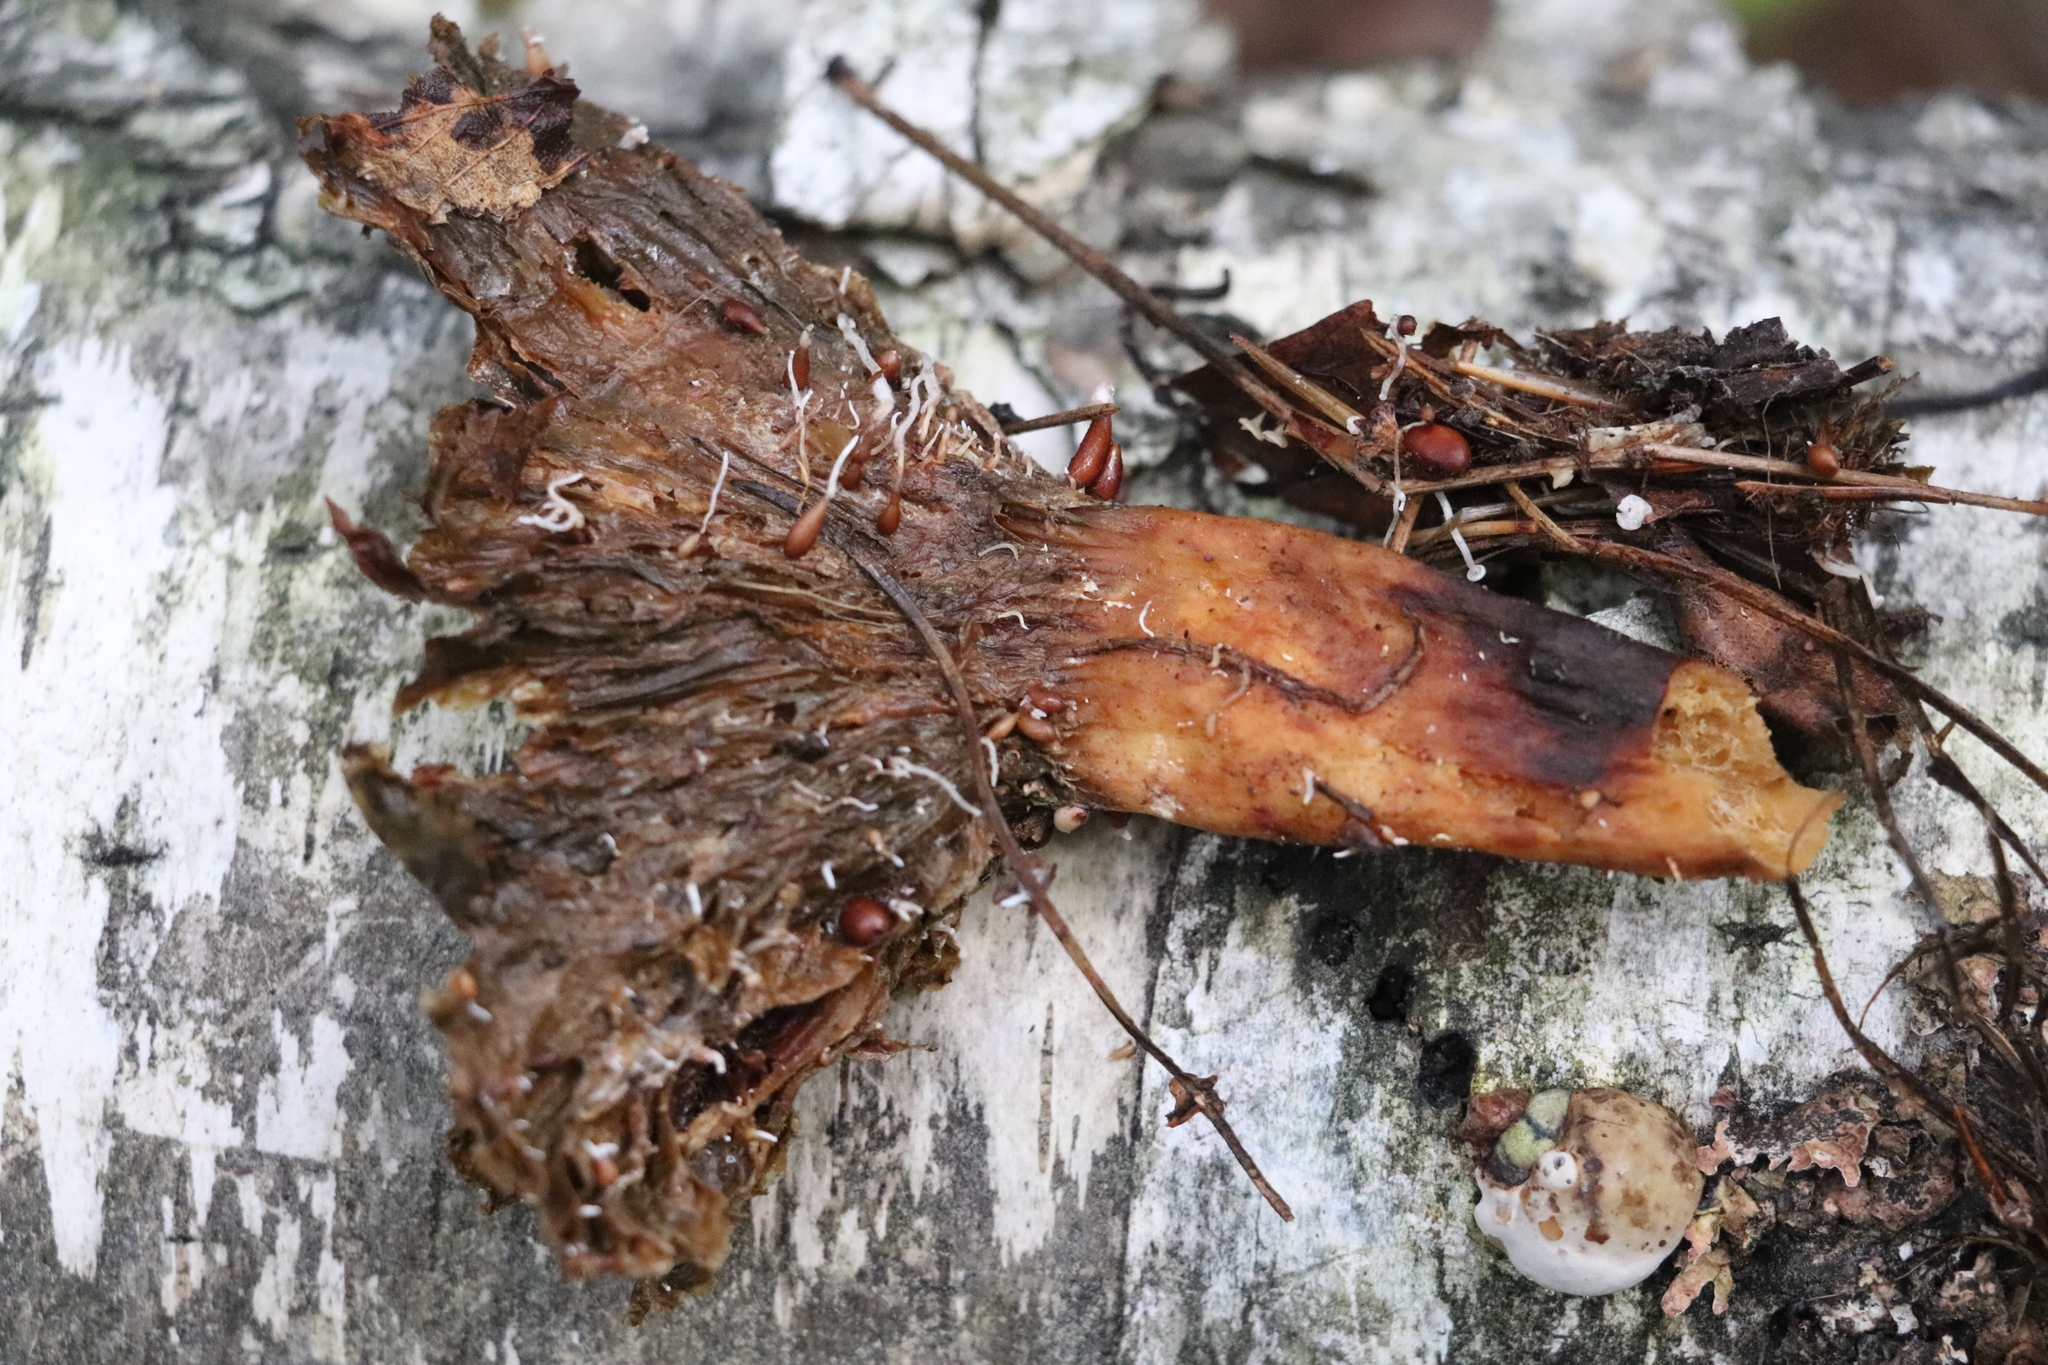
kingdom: Fungi
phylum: Basidiomycota
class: Agaricomycetes
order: Agaricales
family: Tricholomataceae
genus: Collybia
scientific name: Collybia tuberosa
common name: Lentil shanklet
